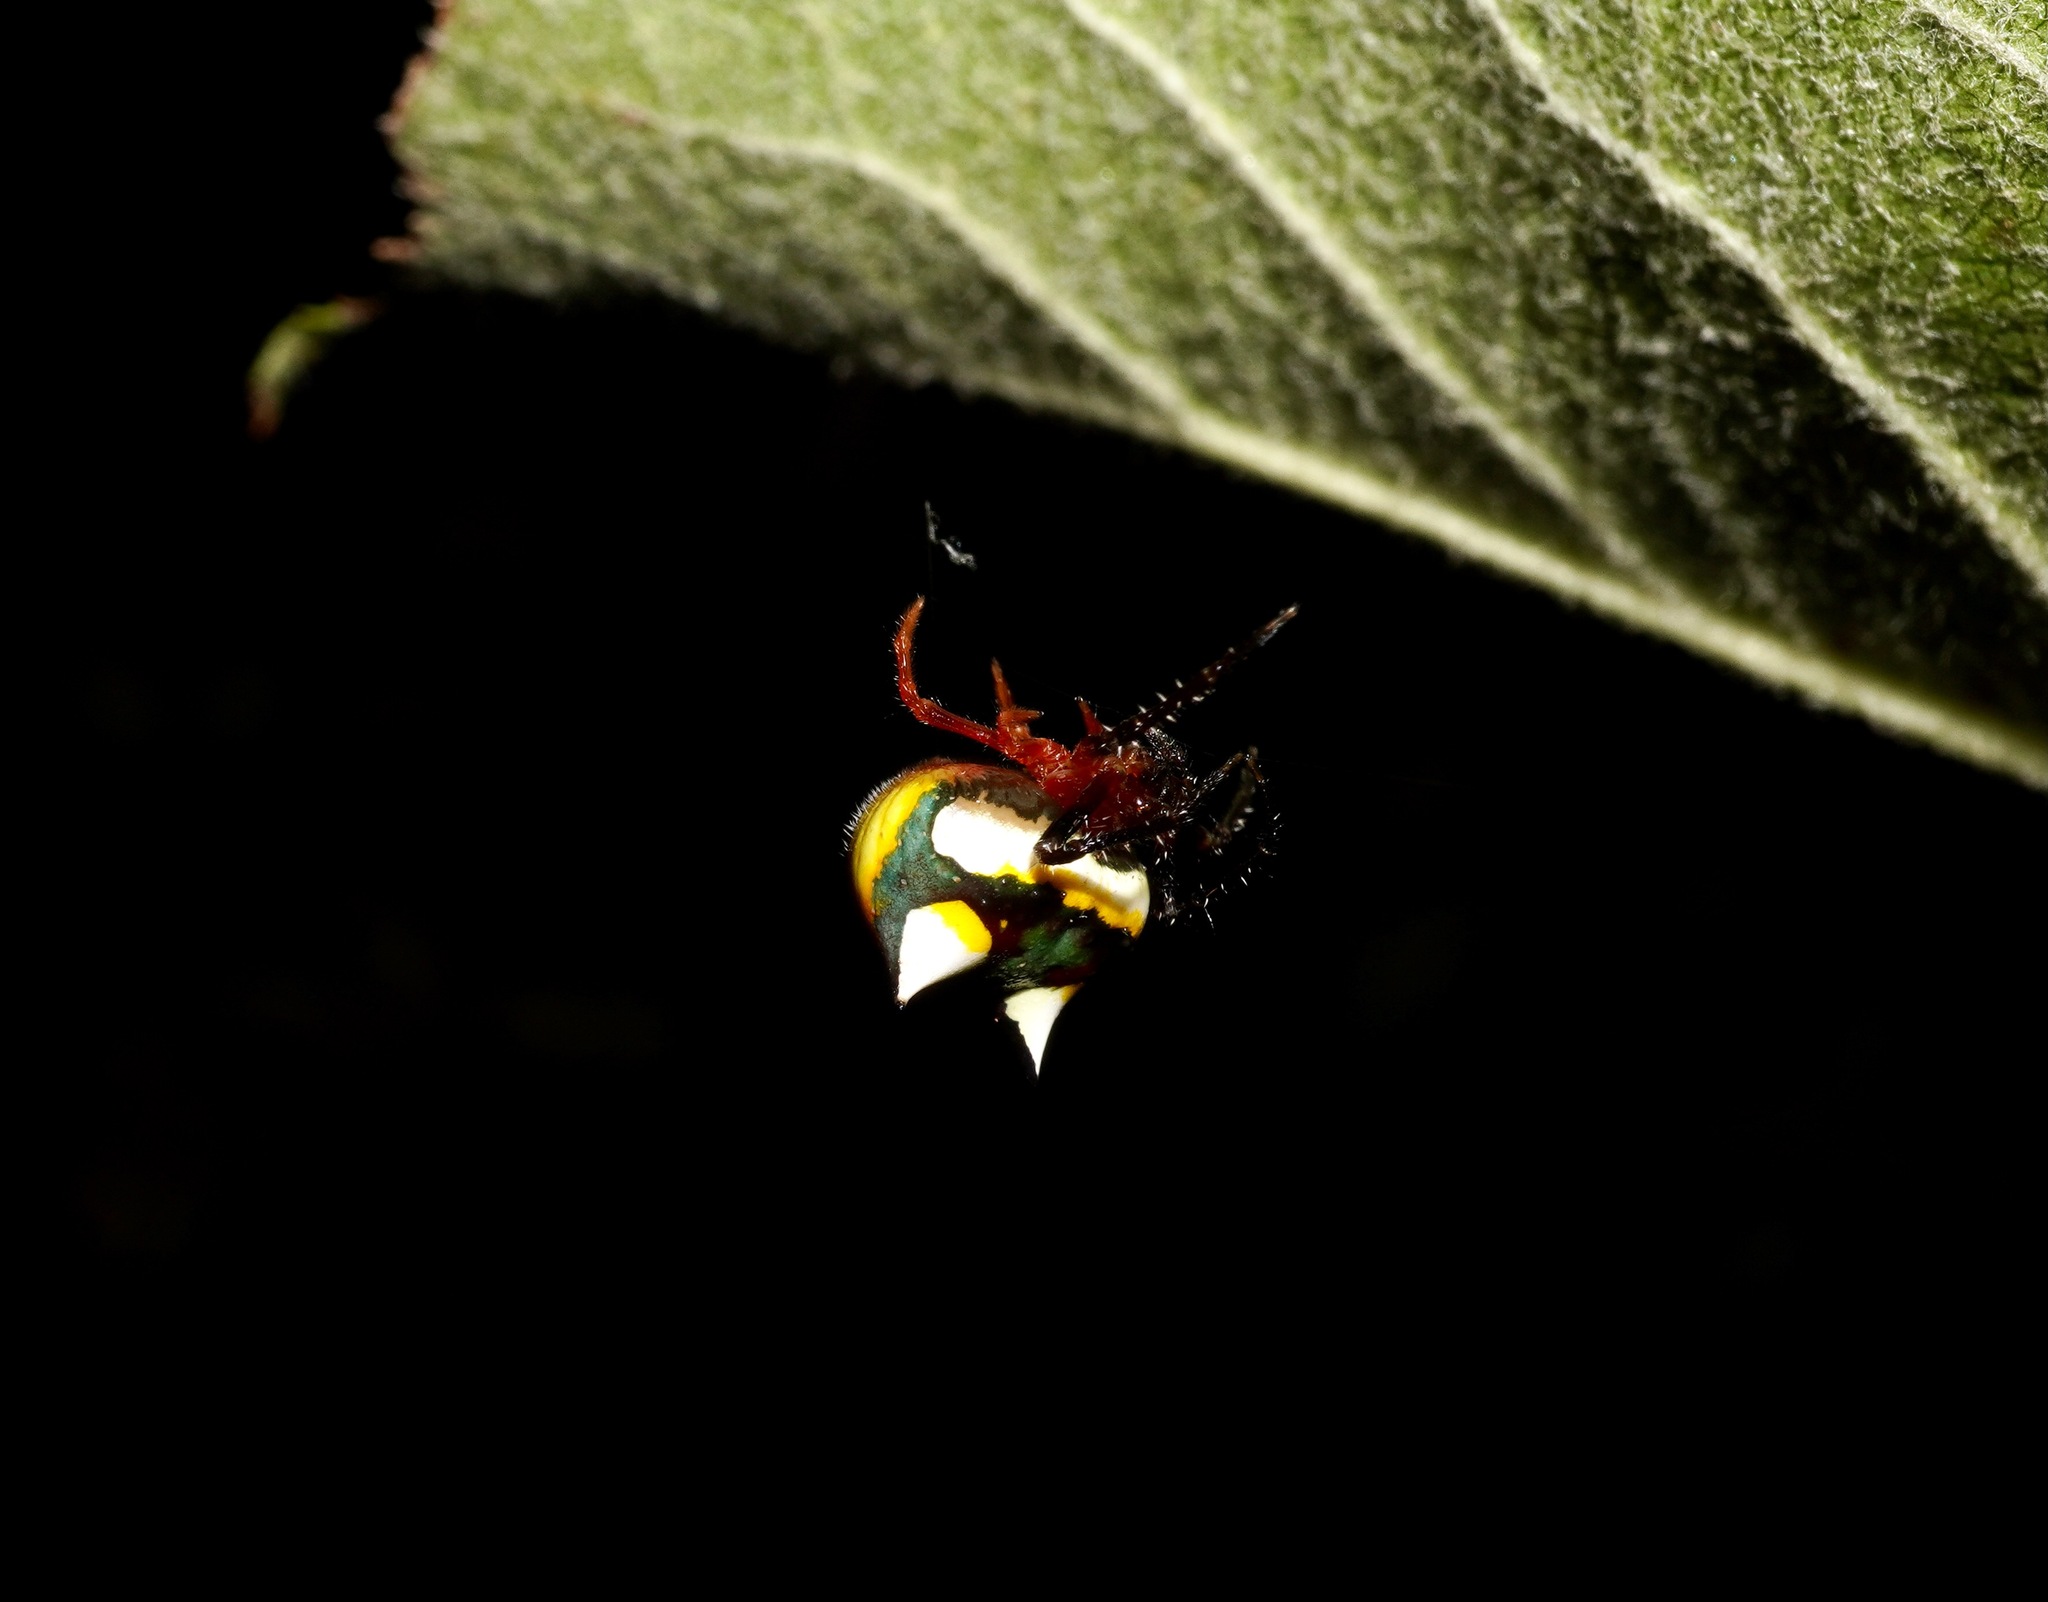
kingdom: Animalia
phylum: Arthropoda
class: Arachnida
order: Araneae
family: Araneidae
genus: Poecilopachys
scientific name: Poecilopachys australasia
